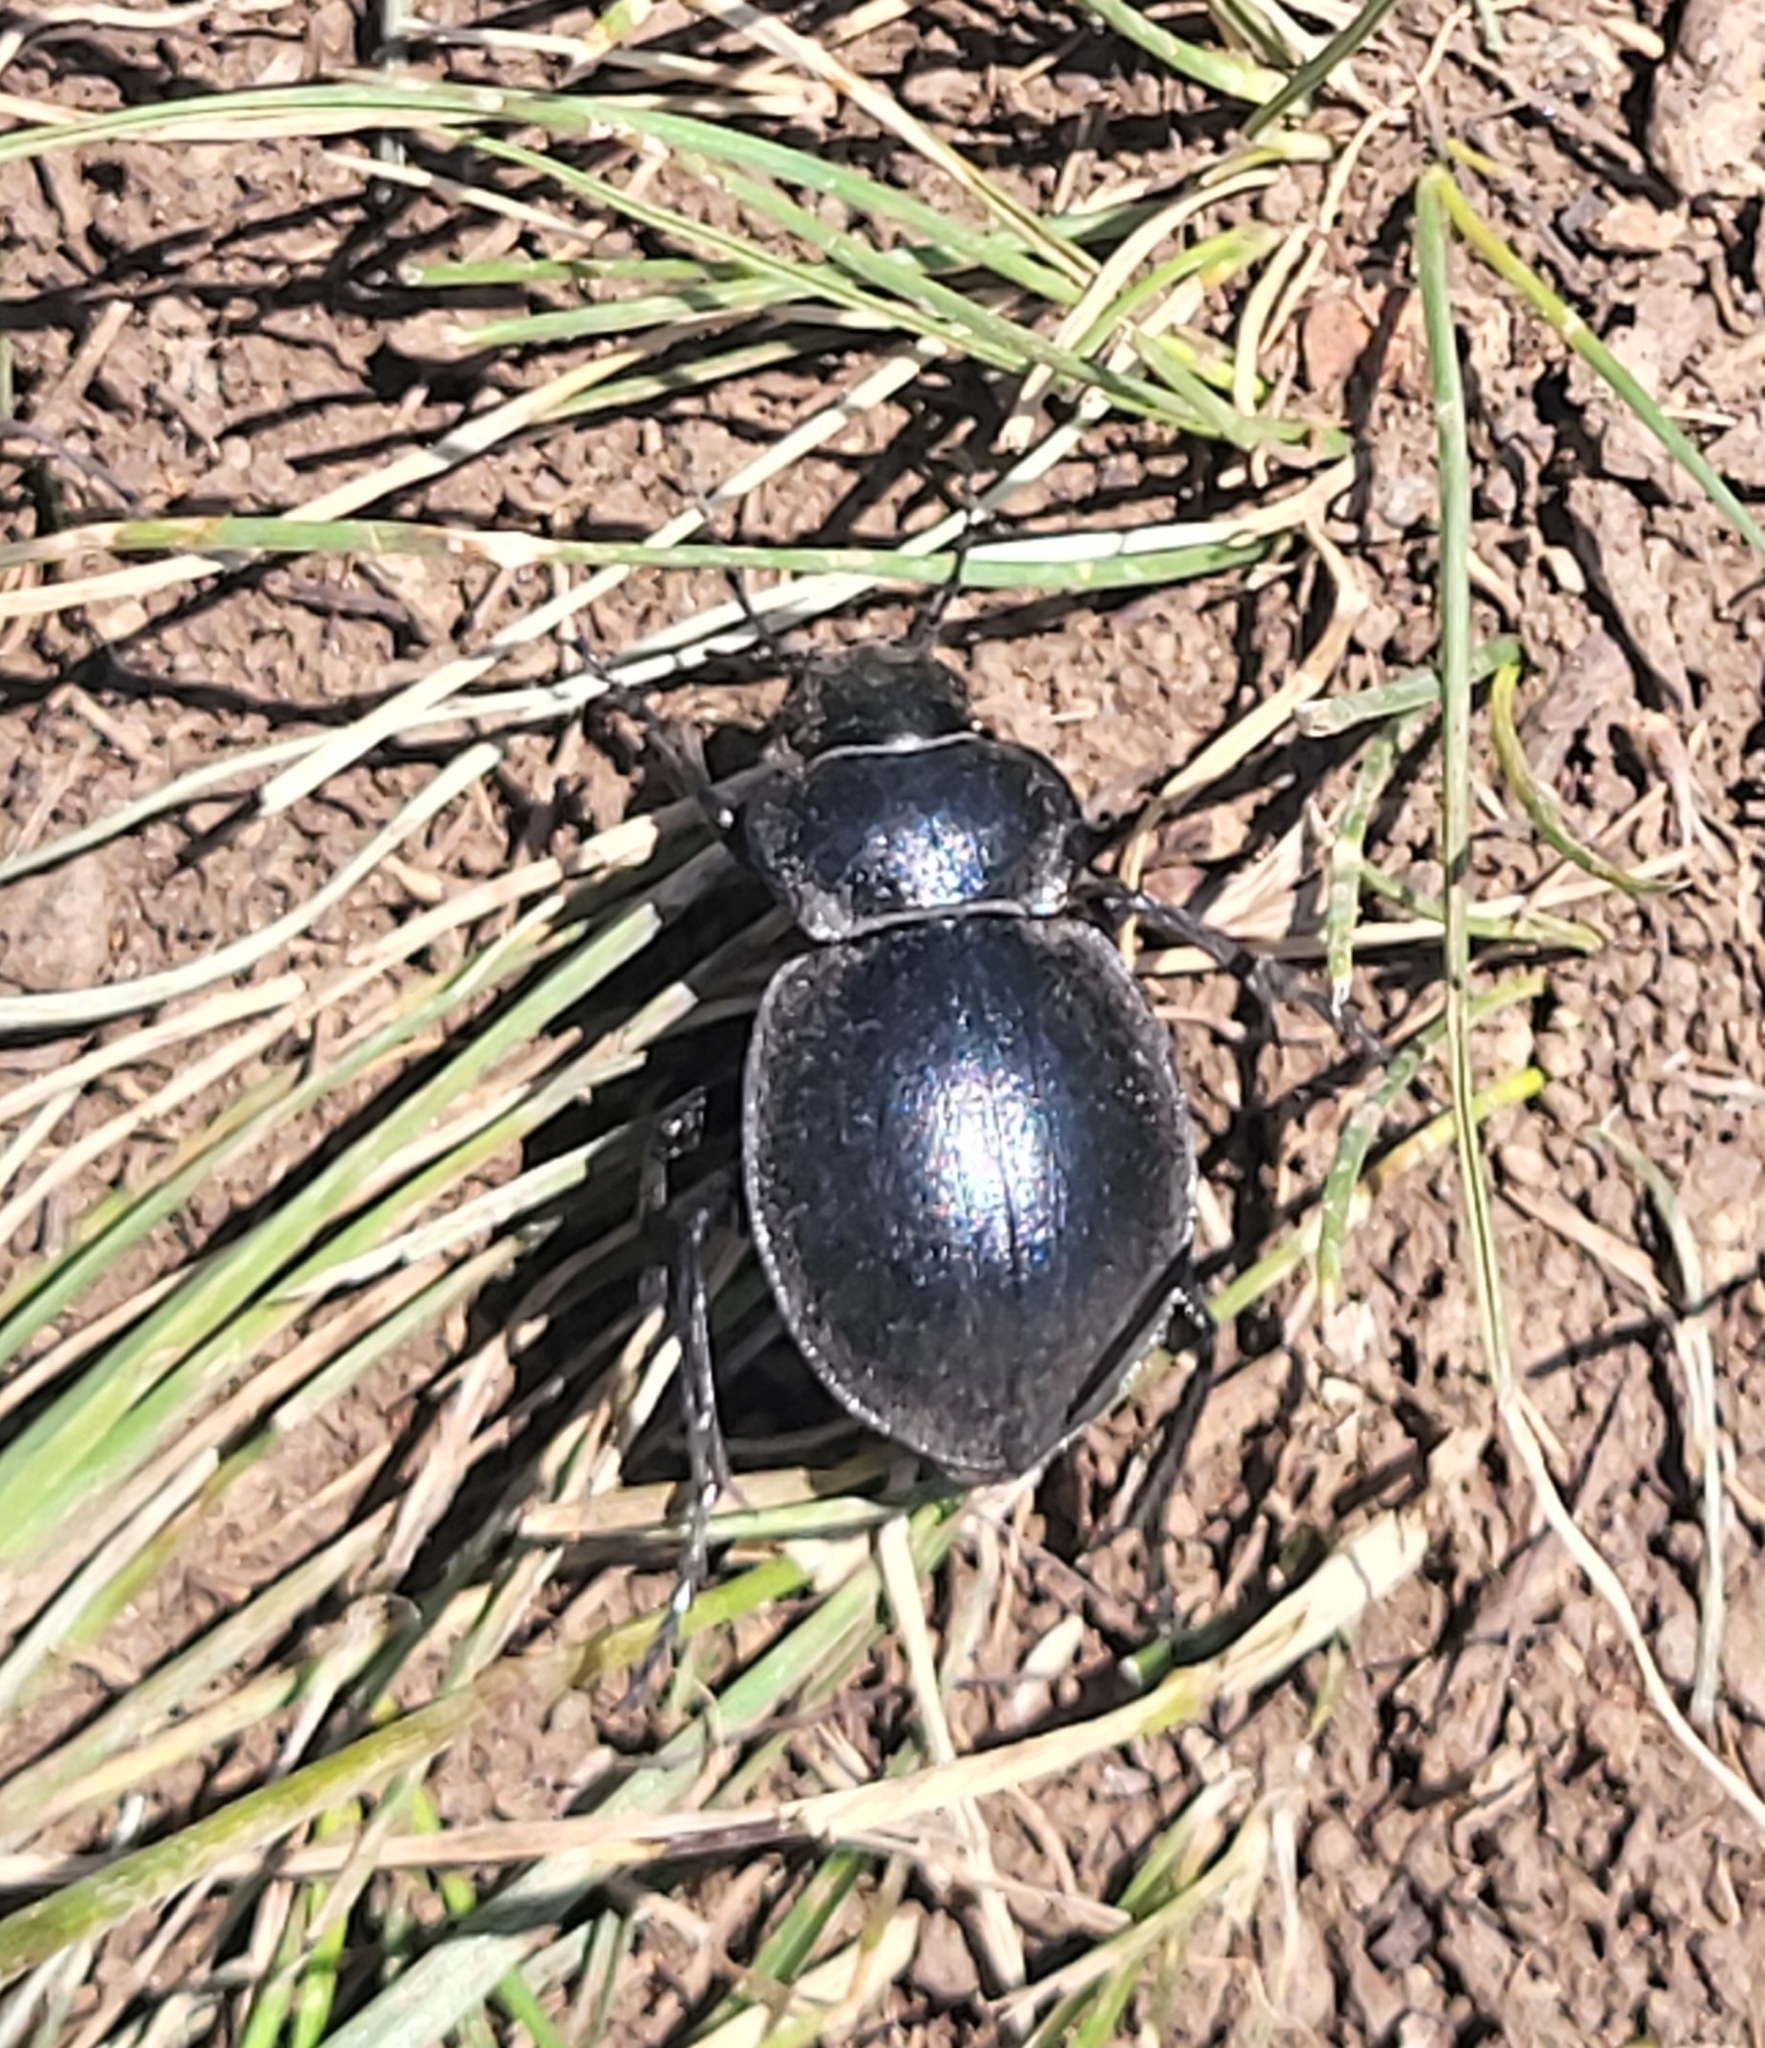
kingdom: Animalia
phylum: Arthropoda
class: Insecta
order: Coleoptera
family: Carabidae
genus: Calosoma
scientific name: Calosoma breviusculum
